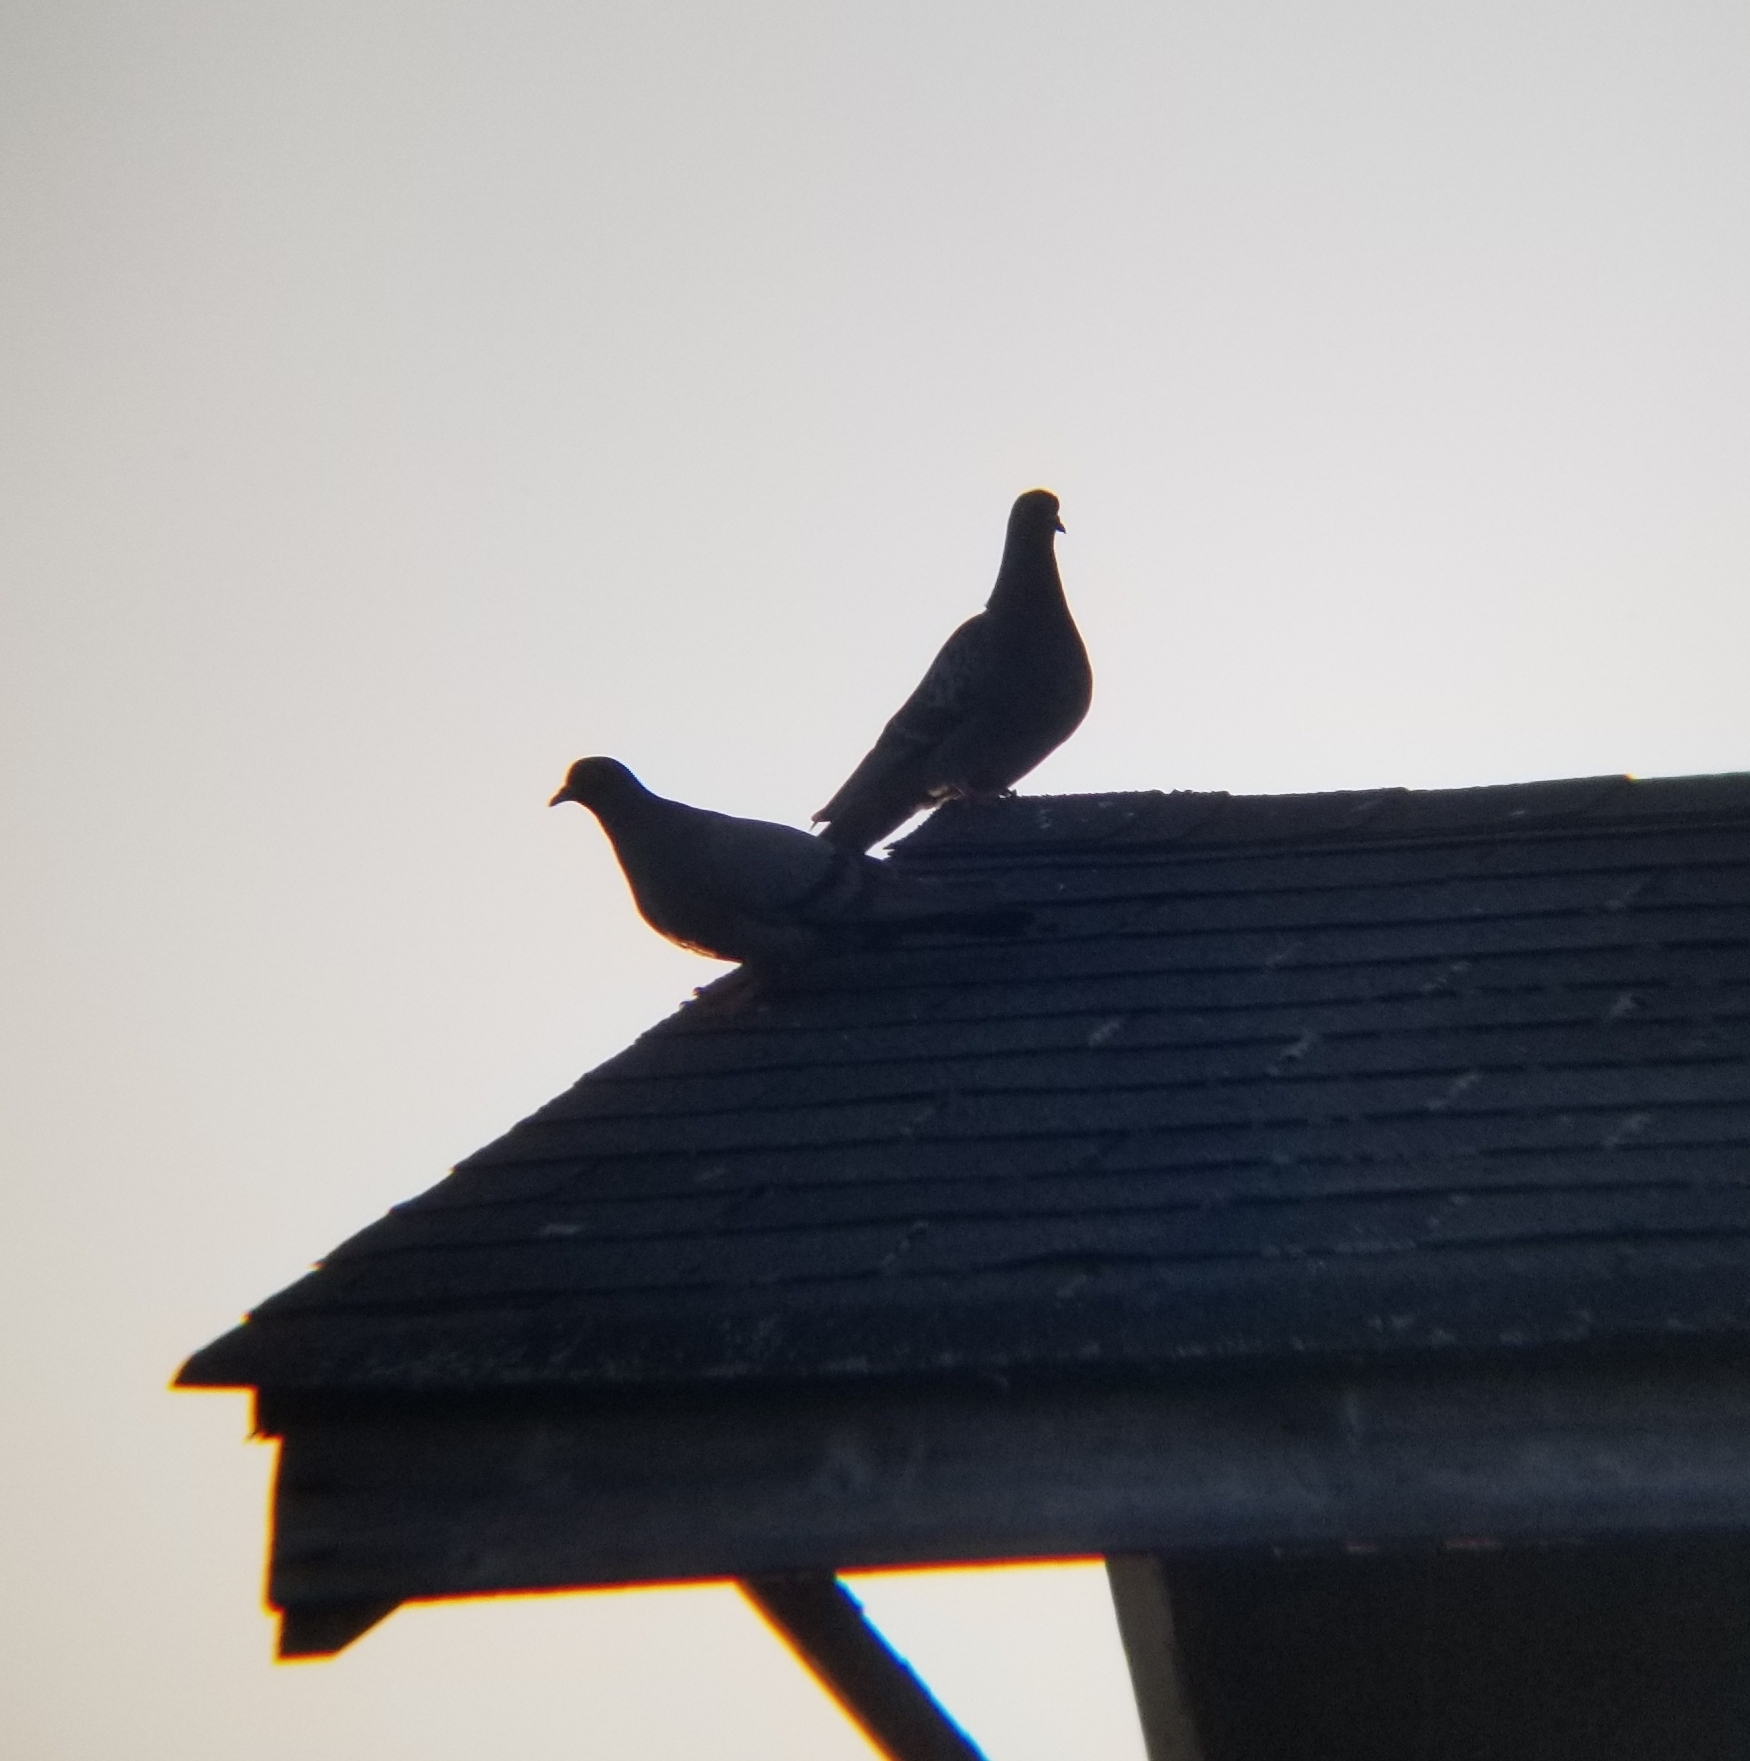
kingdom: Animalia
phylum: Chordata
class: Aves
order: Columbiformes
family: Columbidae
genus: Columba
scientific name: Columba livia
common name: Rock pigeon
